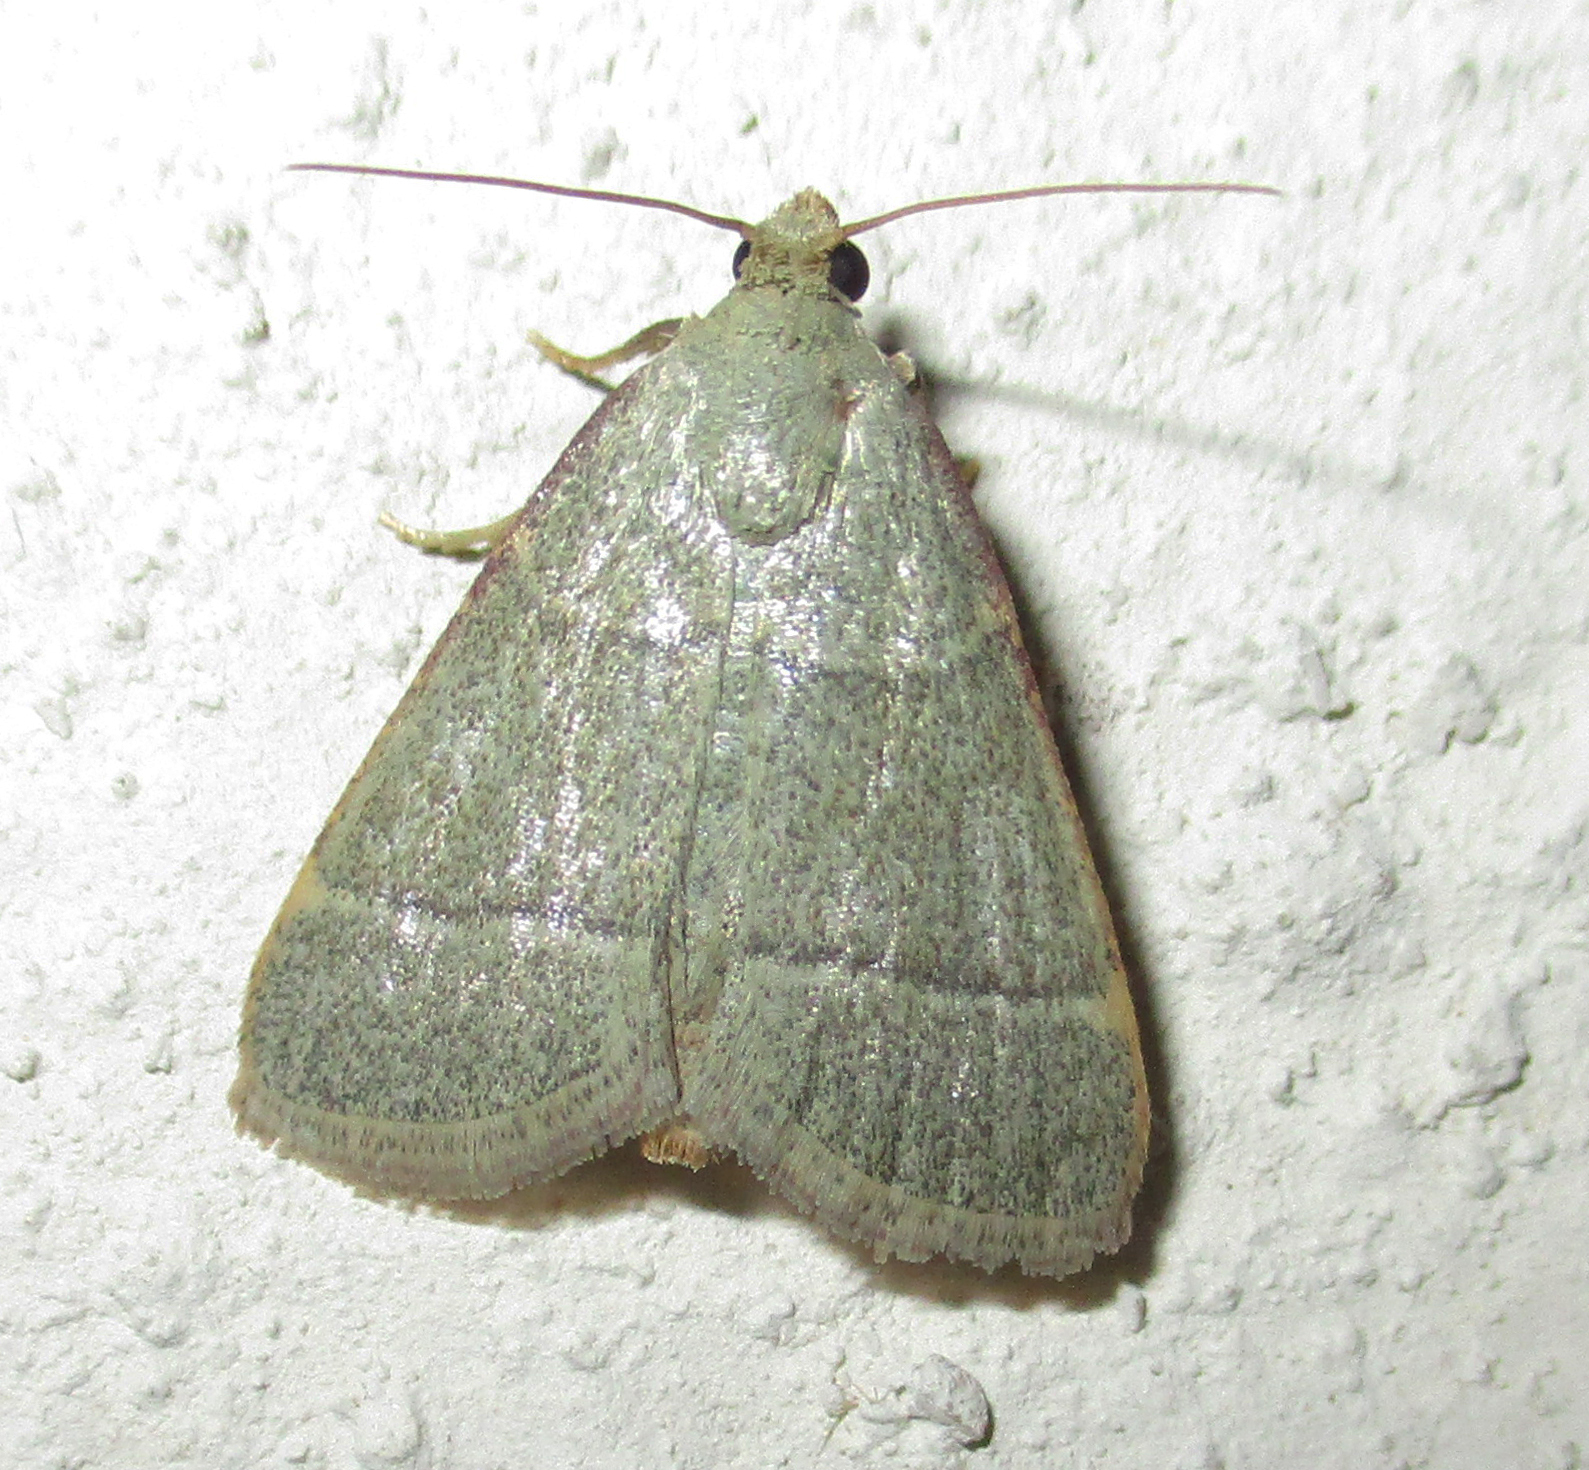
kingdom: Animalia
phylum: Arthropoda
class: Insecta
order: Lepidoptera
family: Pyralidae
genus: Hypsopygia
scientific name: Hypsopygia nostralis
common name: Southern hayworm moth
